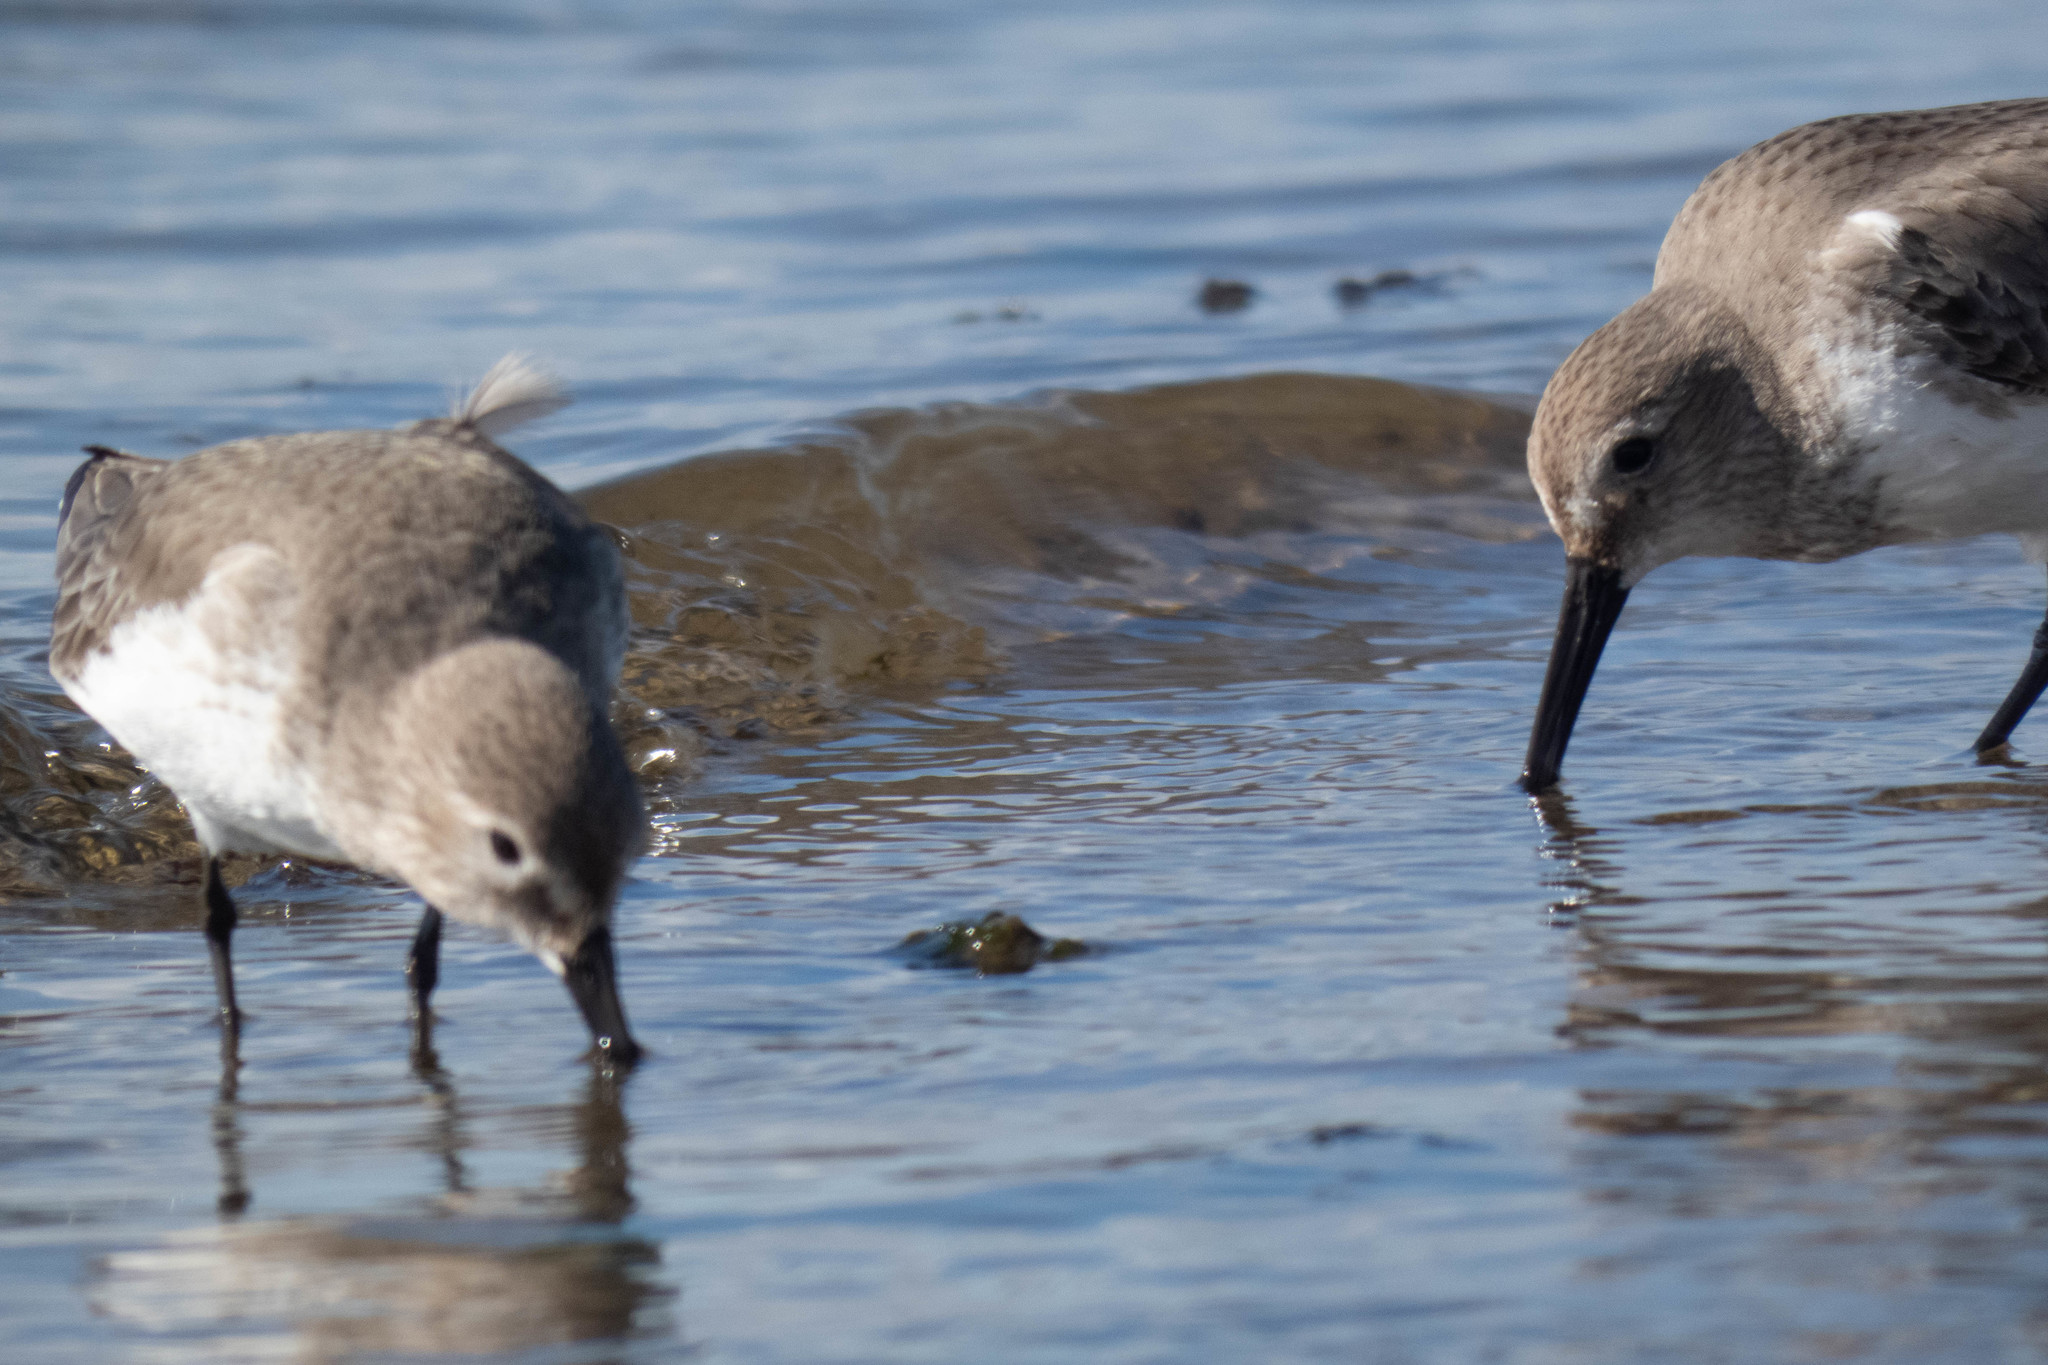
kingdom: Animalia
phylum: Chordata
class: Aves
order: Charadriiformes
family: Scolopacidae
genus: Calidris
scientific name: Calidris alpina
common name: Dunlin
